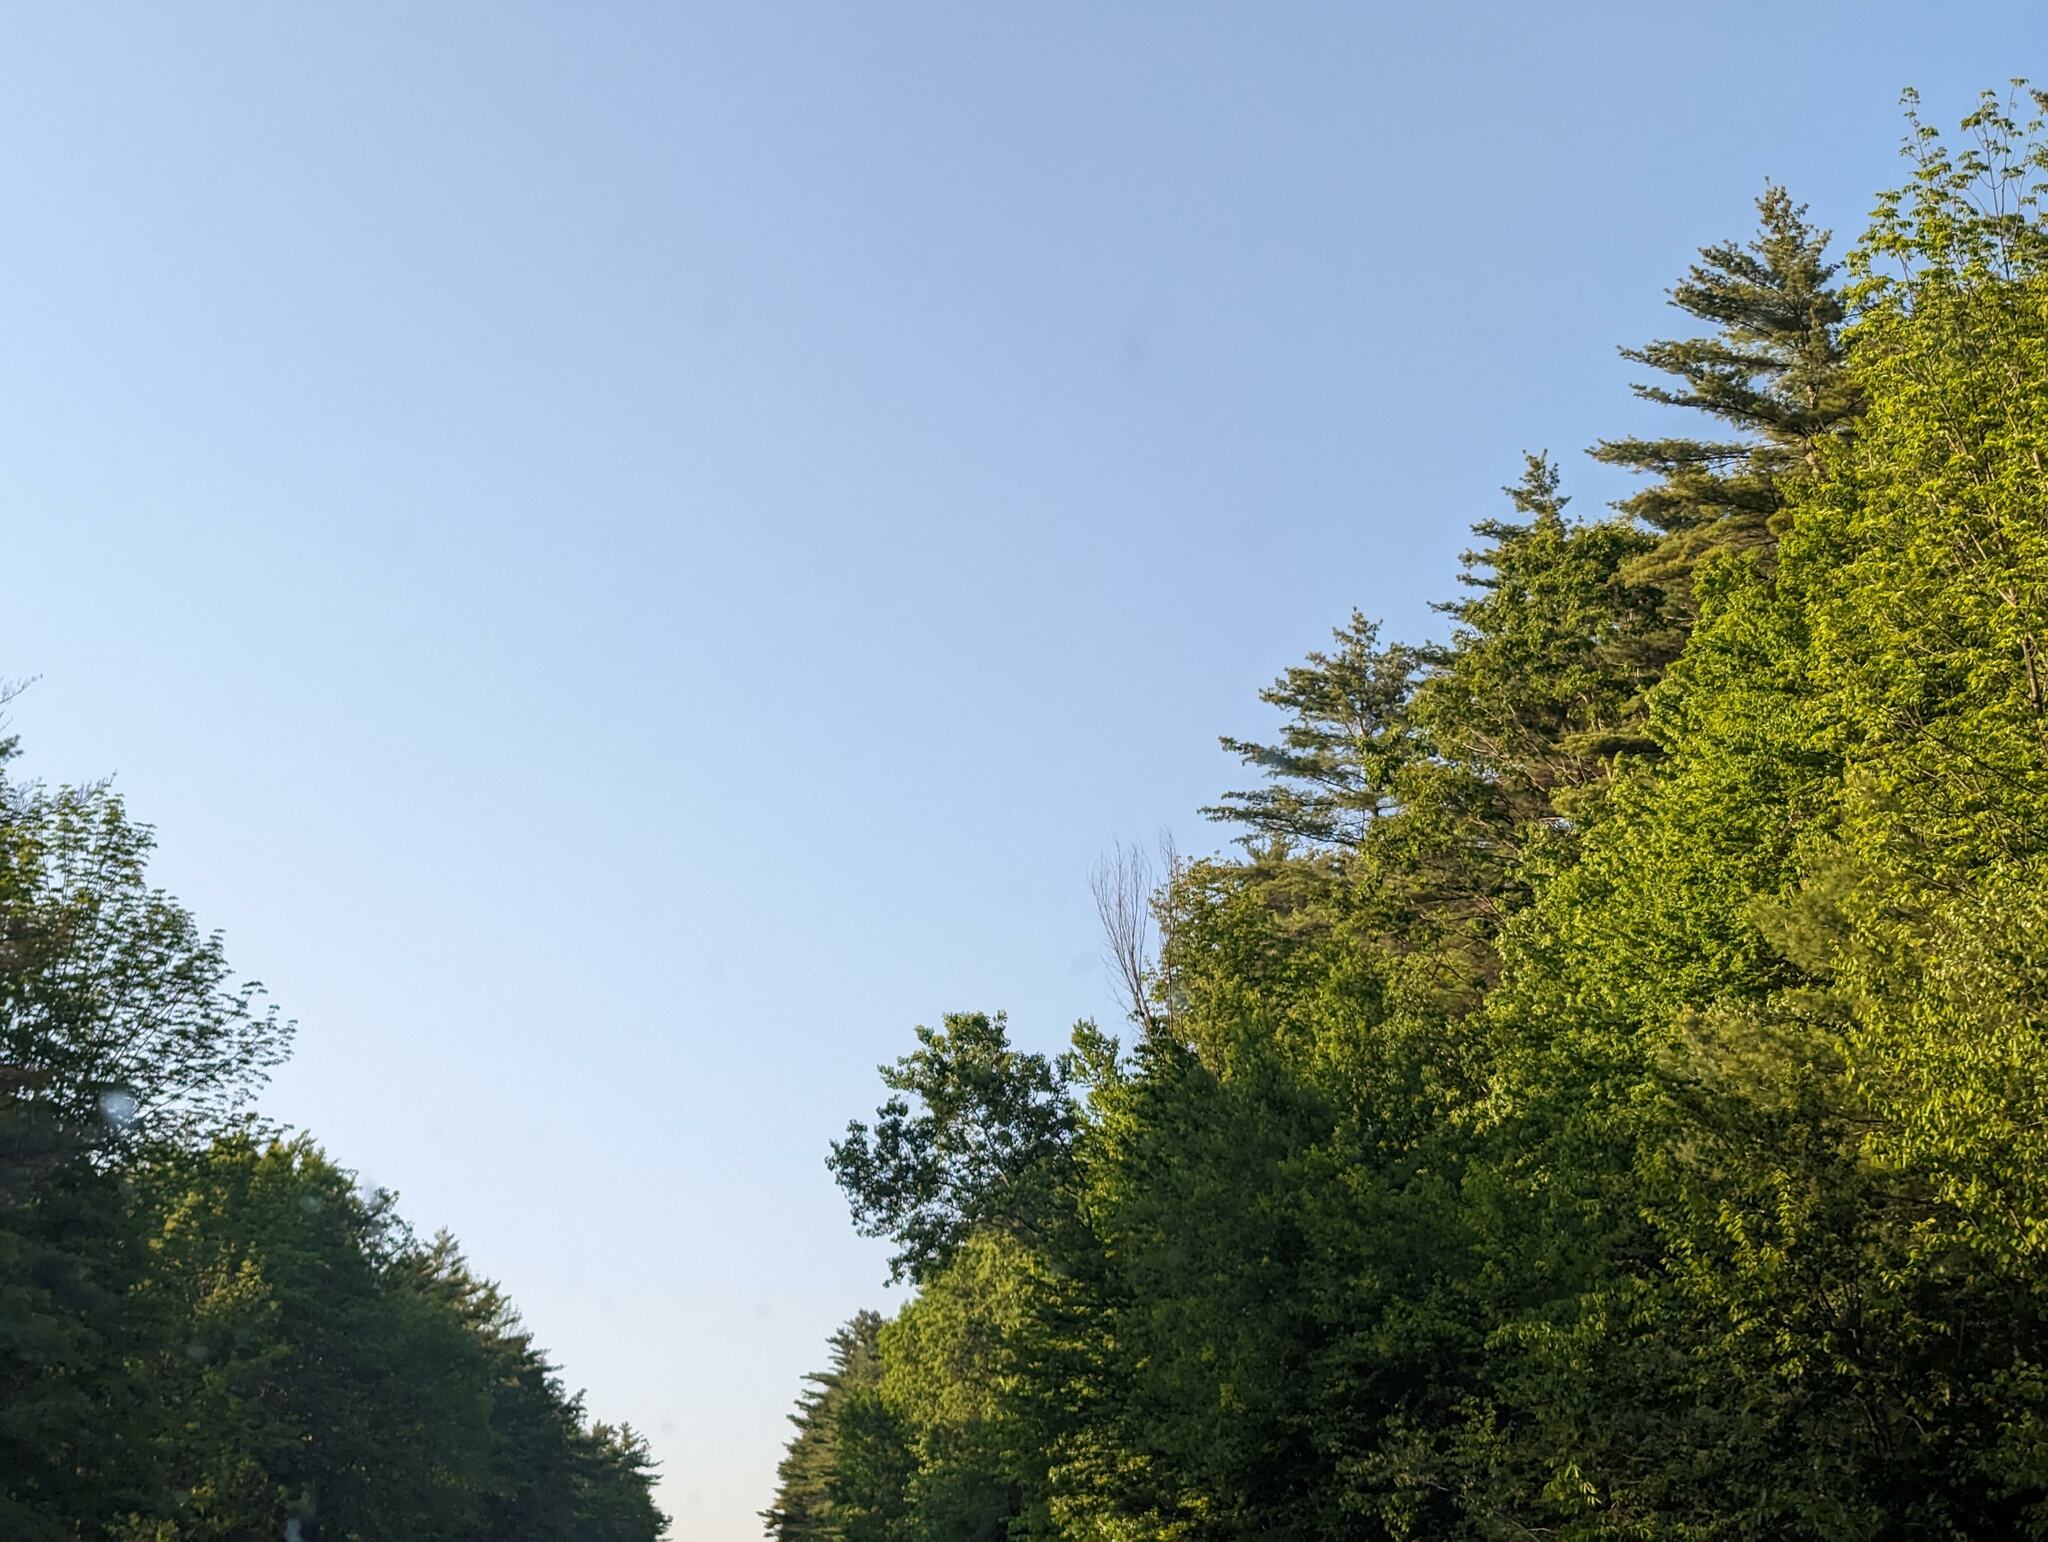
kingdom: Plantae
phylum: Tracheophyta
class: Pinopsida
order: Pinales
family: Pinaceae
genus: Pinus
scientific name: Pinus strobus
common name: Weymouth pine
